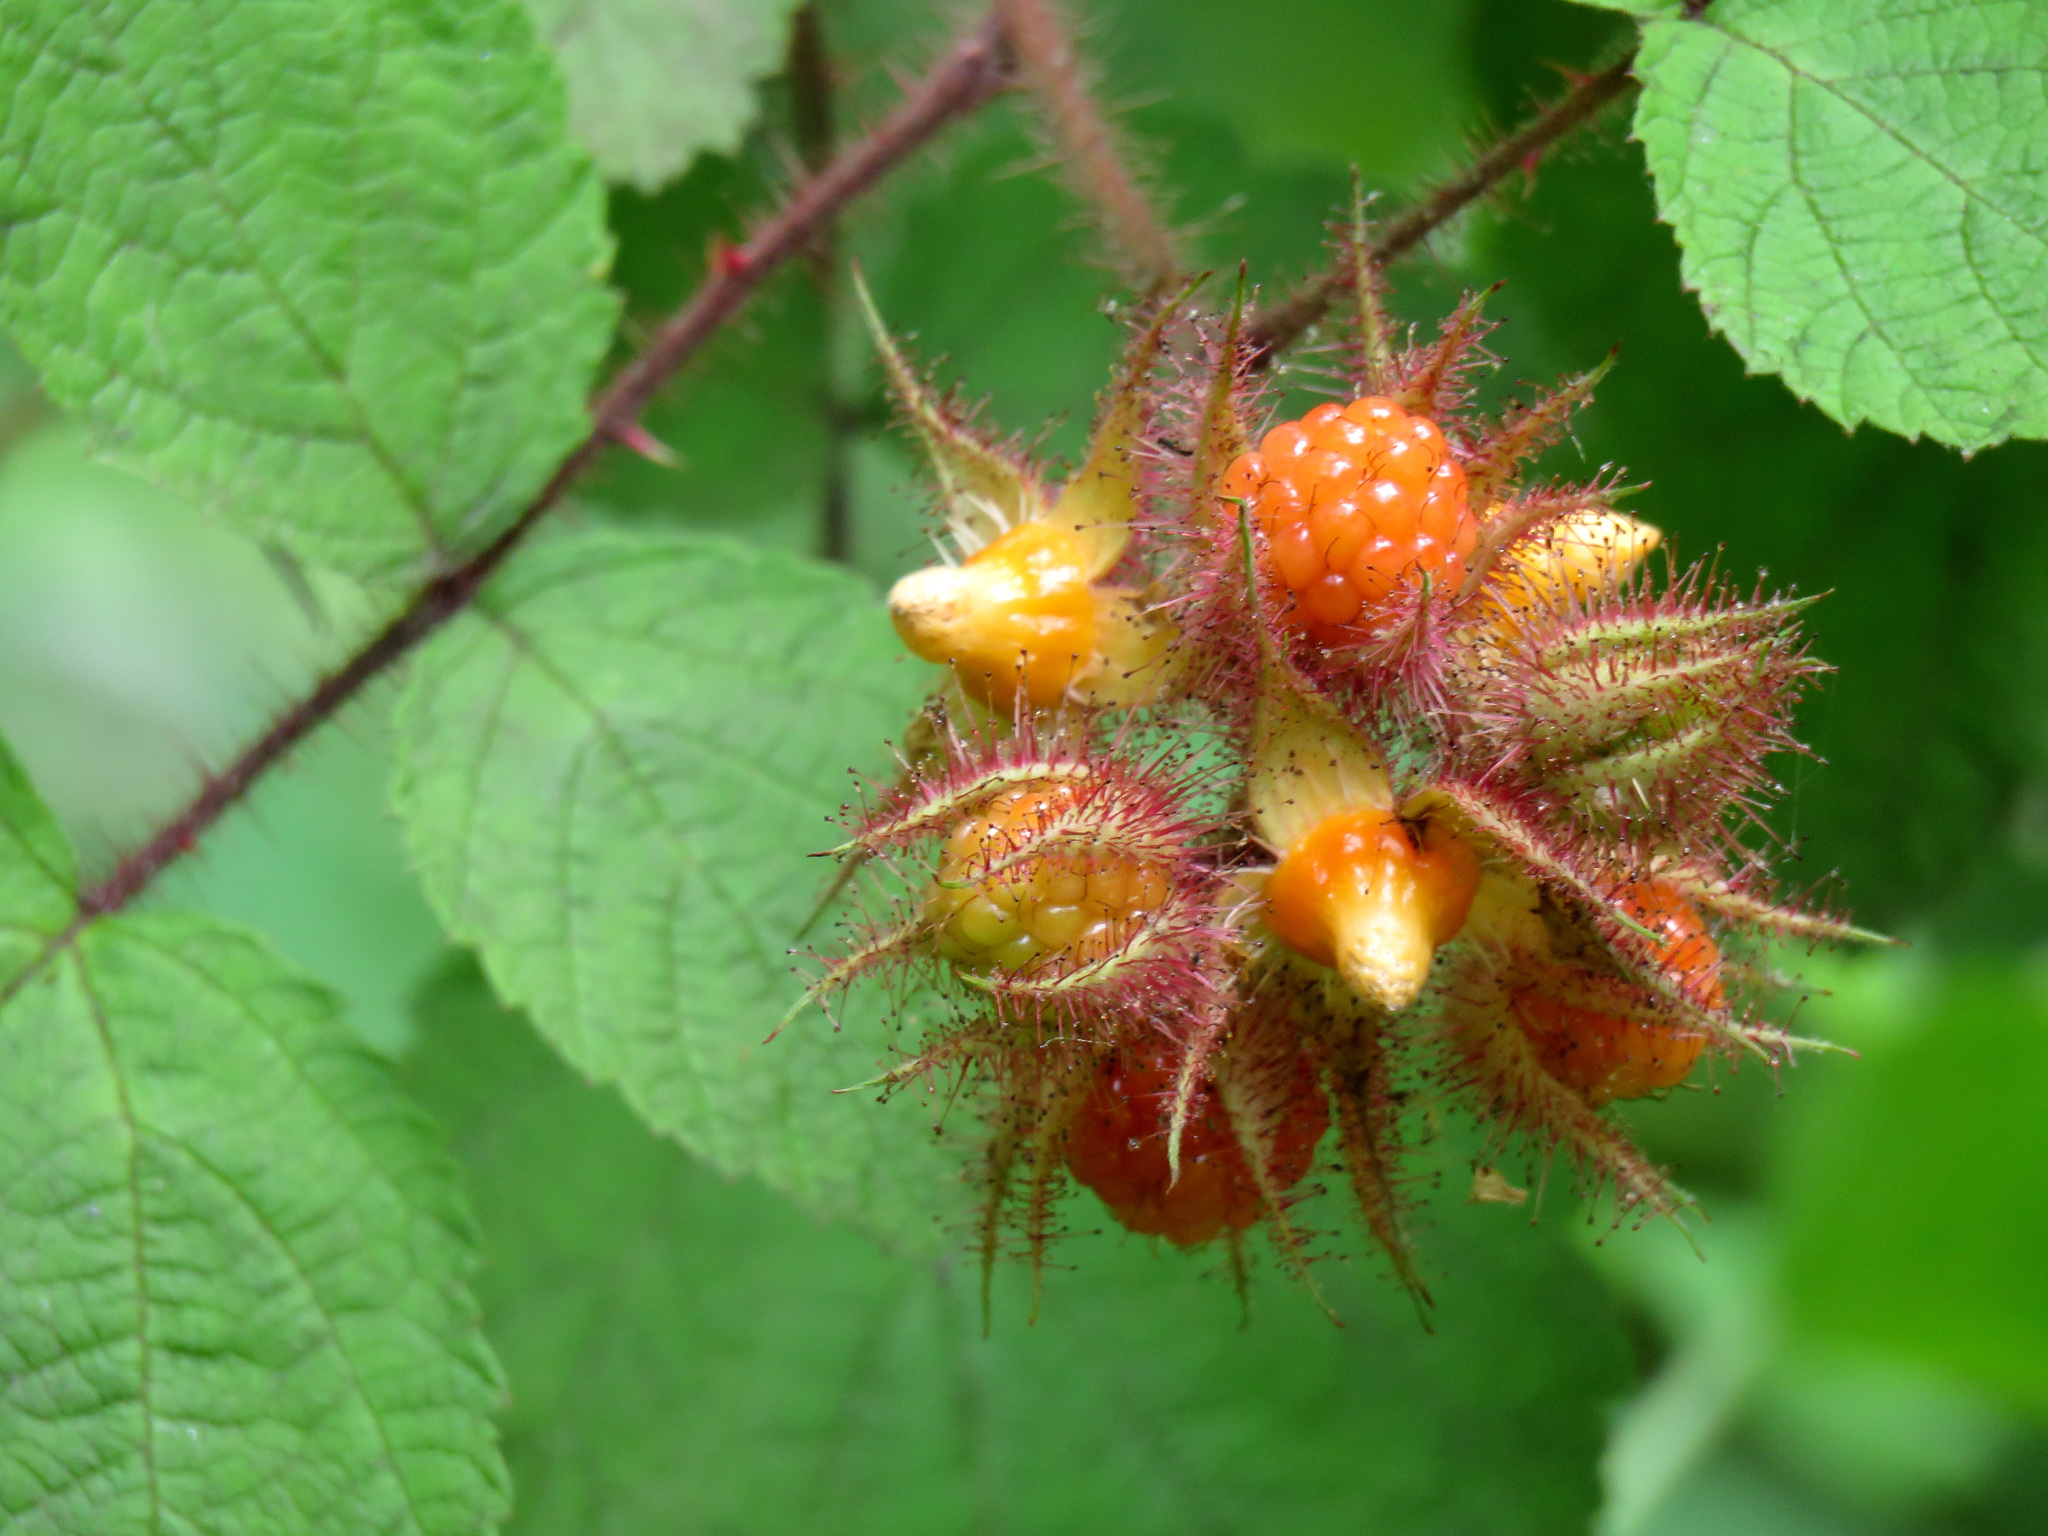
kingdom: Plantae
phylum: Tracheophyta
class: Magnoliopsida
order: Rosales
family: Rosaceae
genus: Rubus
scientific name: Rubus phoenicolasius
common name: Japanese wineberry
